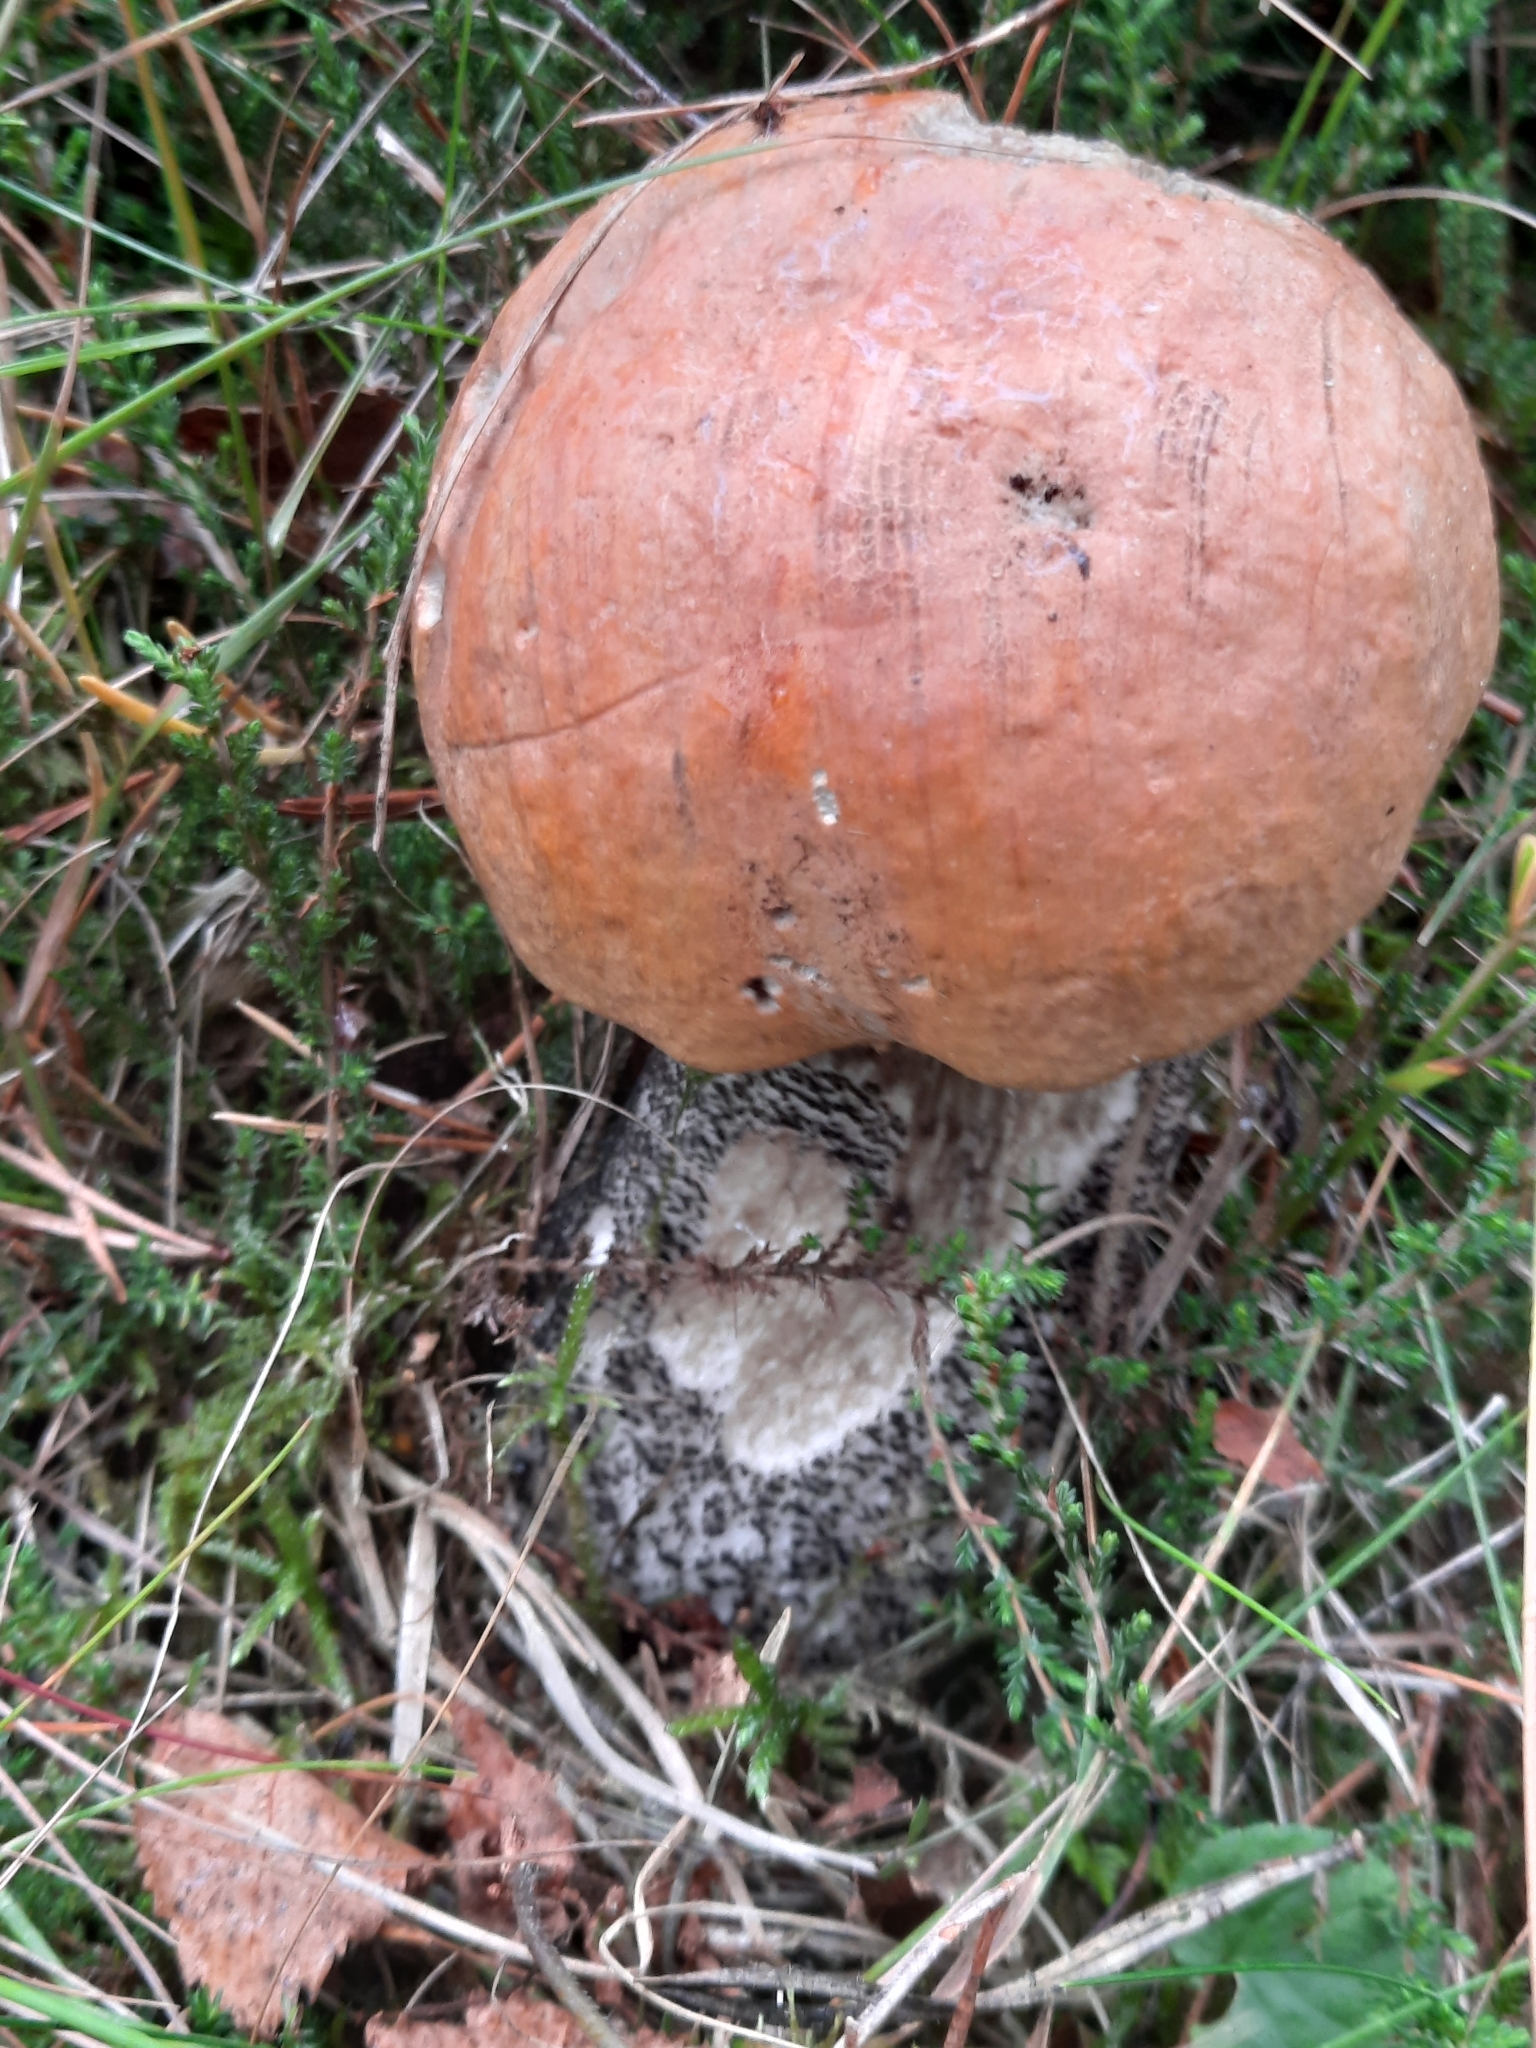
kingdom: Fungi
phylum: Basidiomycota
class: Agaricomycetes
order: Boletales
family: Boletaceae
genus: Leccinum
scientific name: Leccinum versipelle
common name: Orange birch bolete
